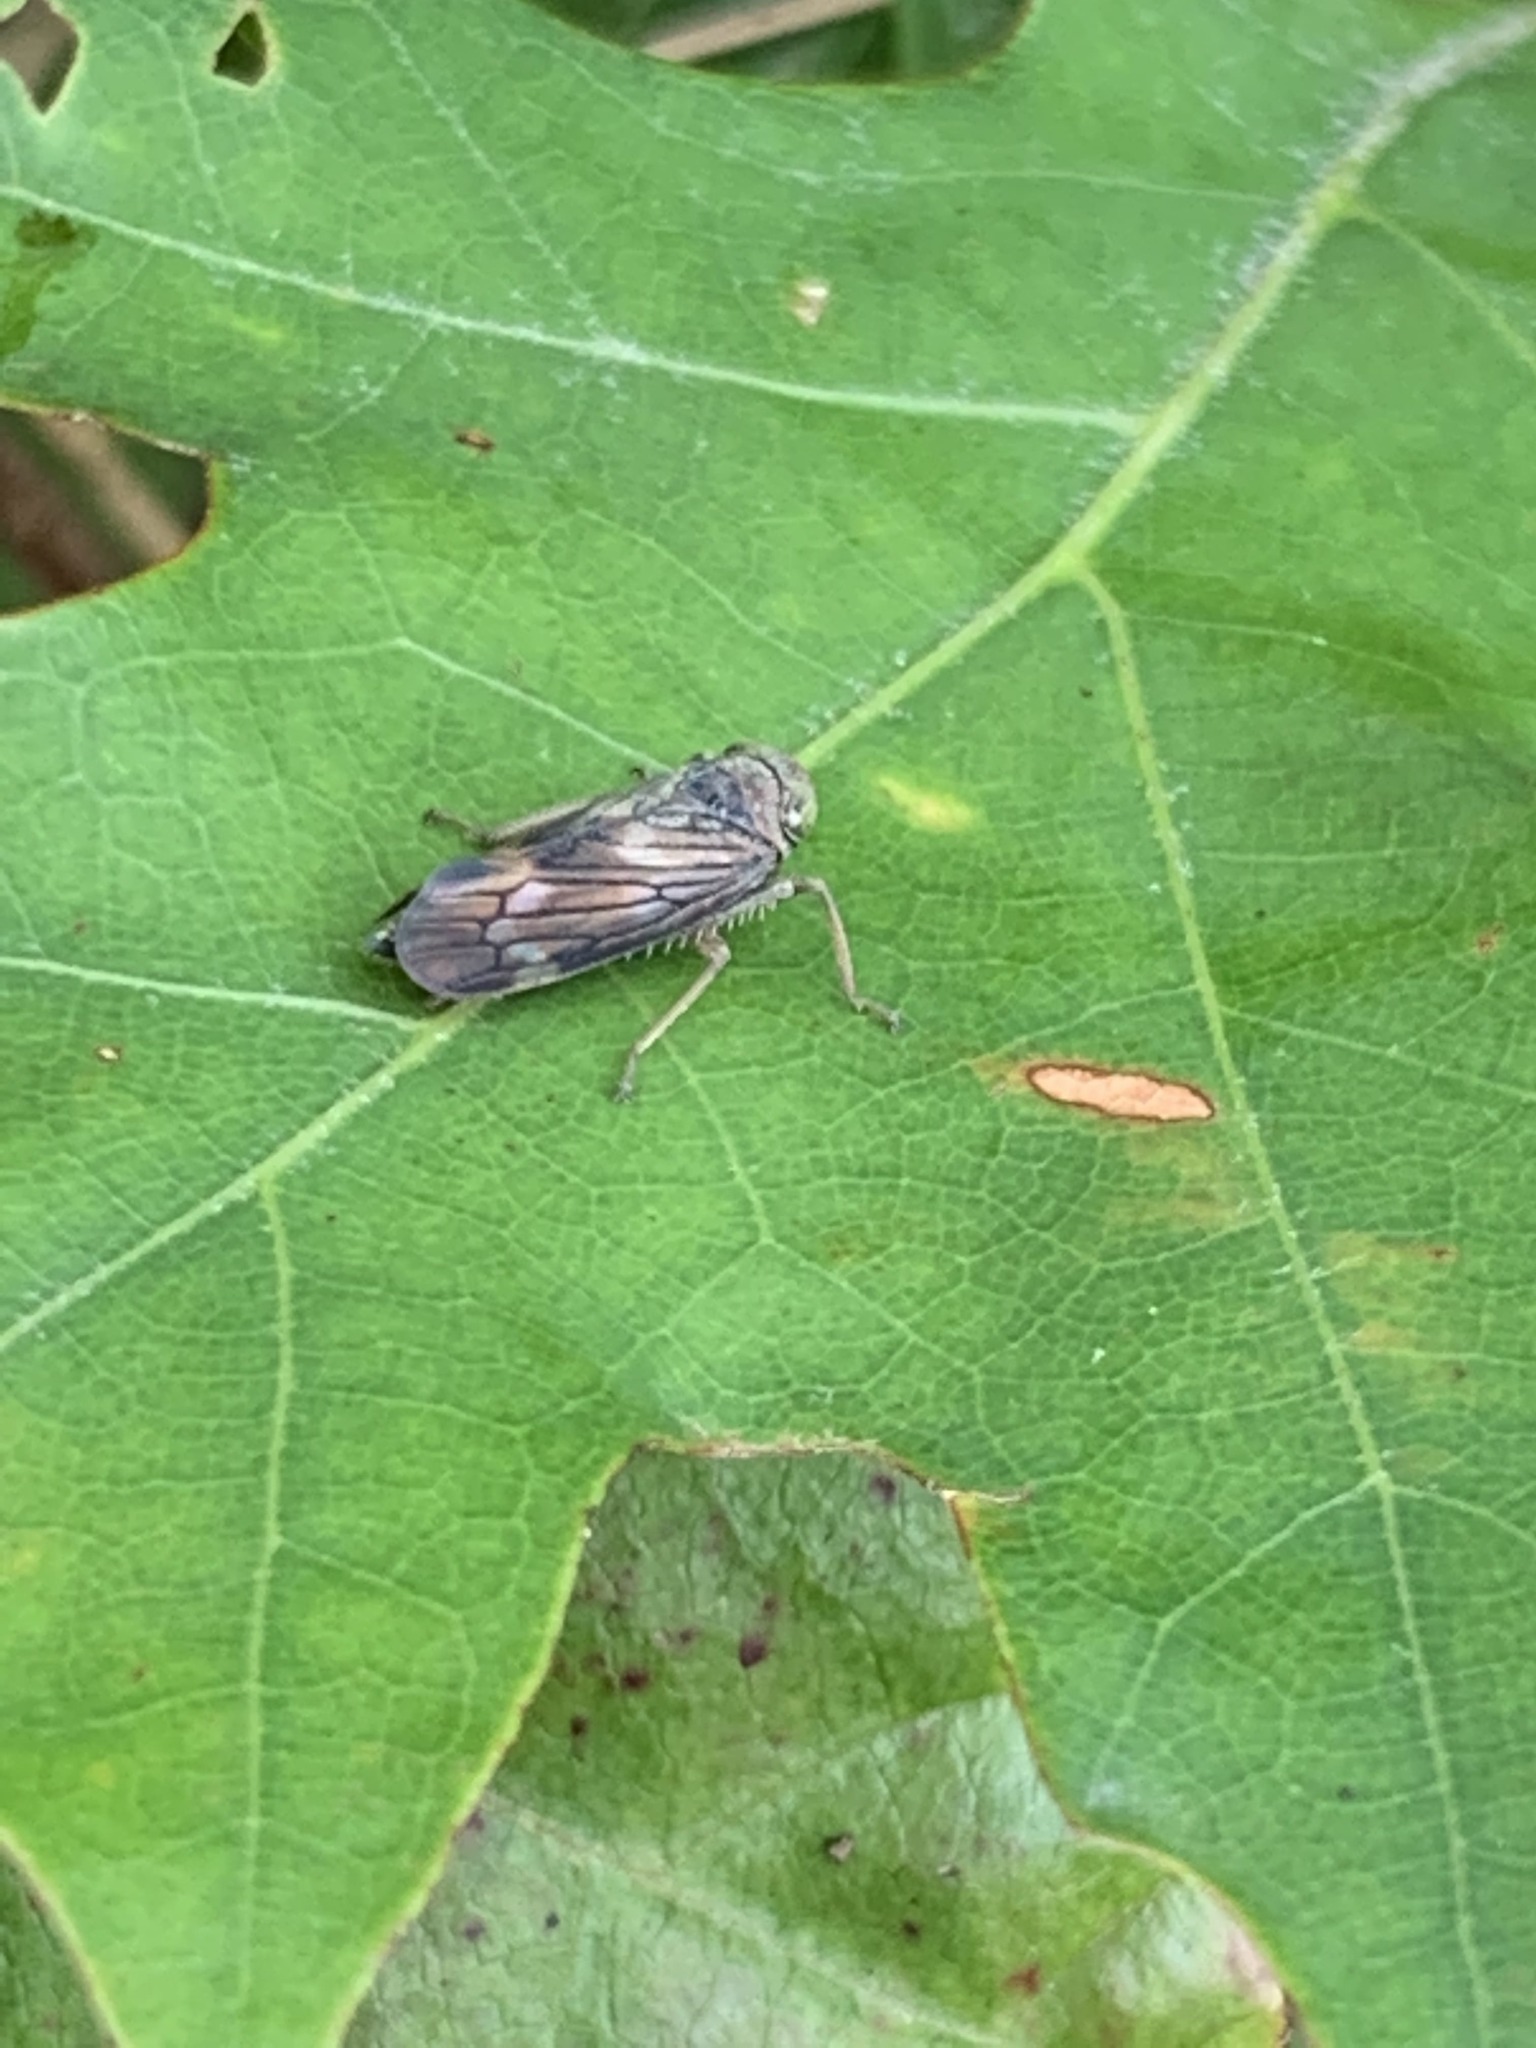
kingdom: Animalia
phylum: Arthropoda
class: Insecta
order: Hemiptera
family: Cicadellidae
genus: Jikradia
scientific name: Jikradia olitoria
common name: Coppery leafhopper
